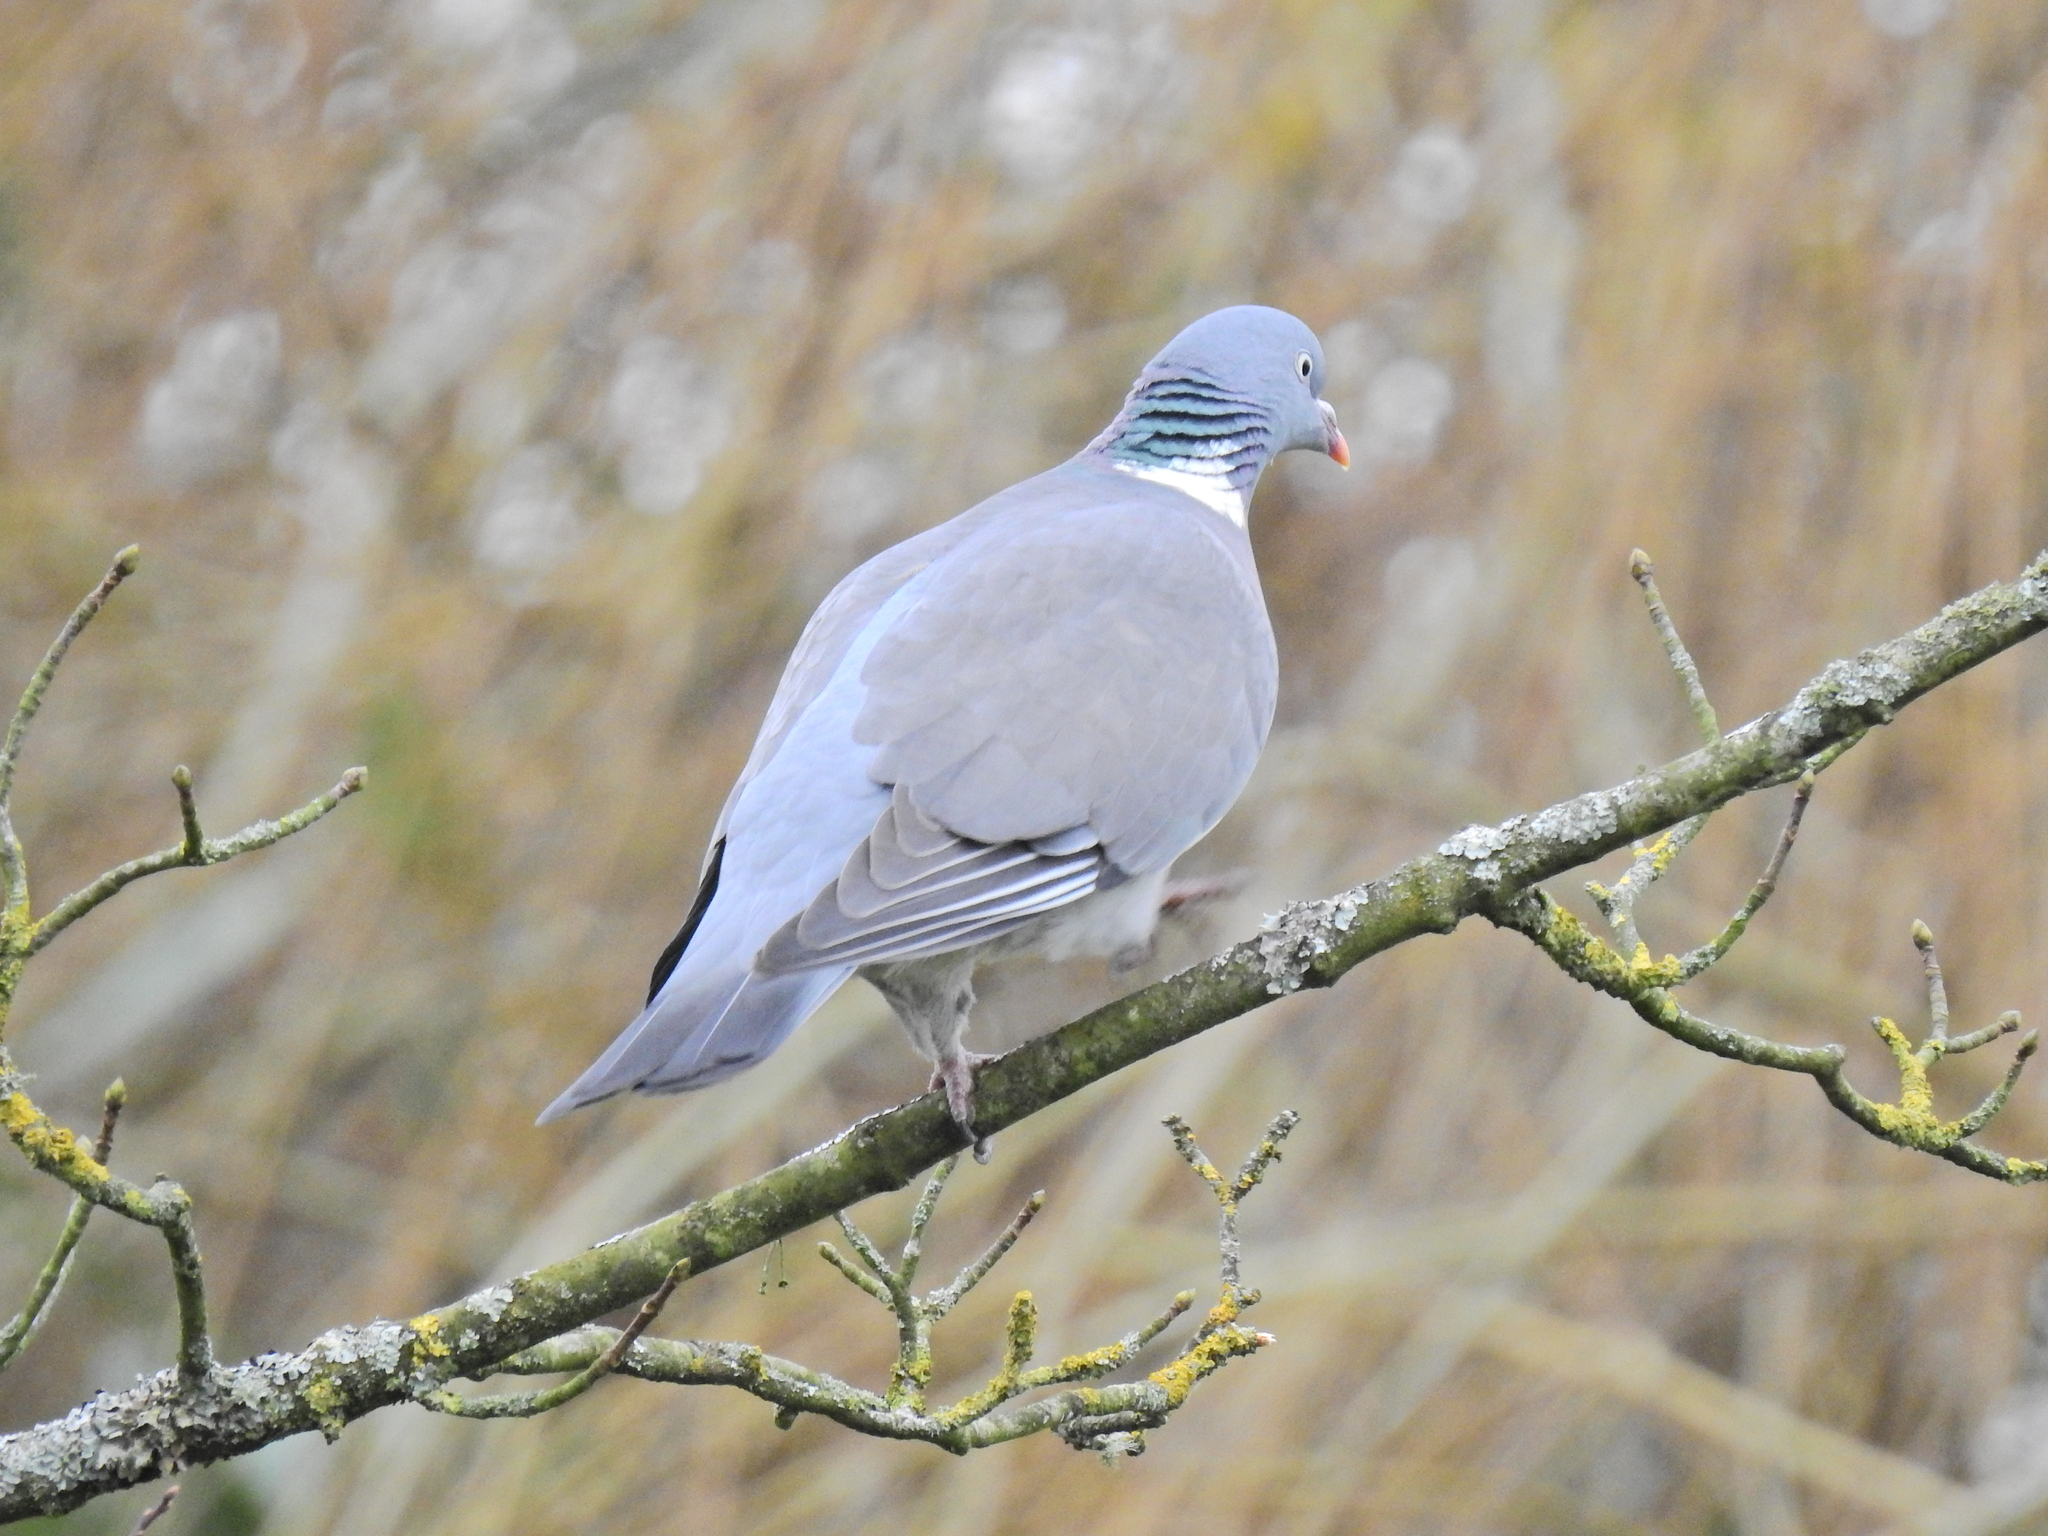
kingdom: Animalia
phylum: Chordata
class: Aves
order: Columbiformes
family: Columbidae
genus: Columba
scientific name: Columba palumbus
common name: Common wood pigeon
